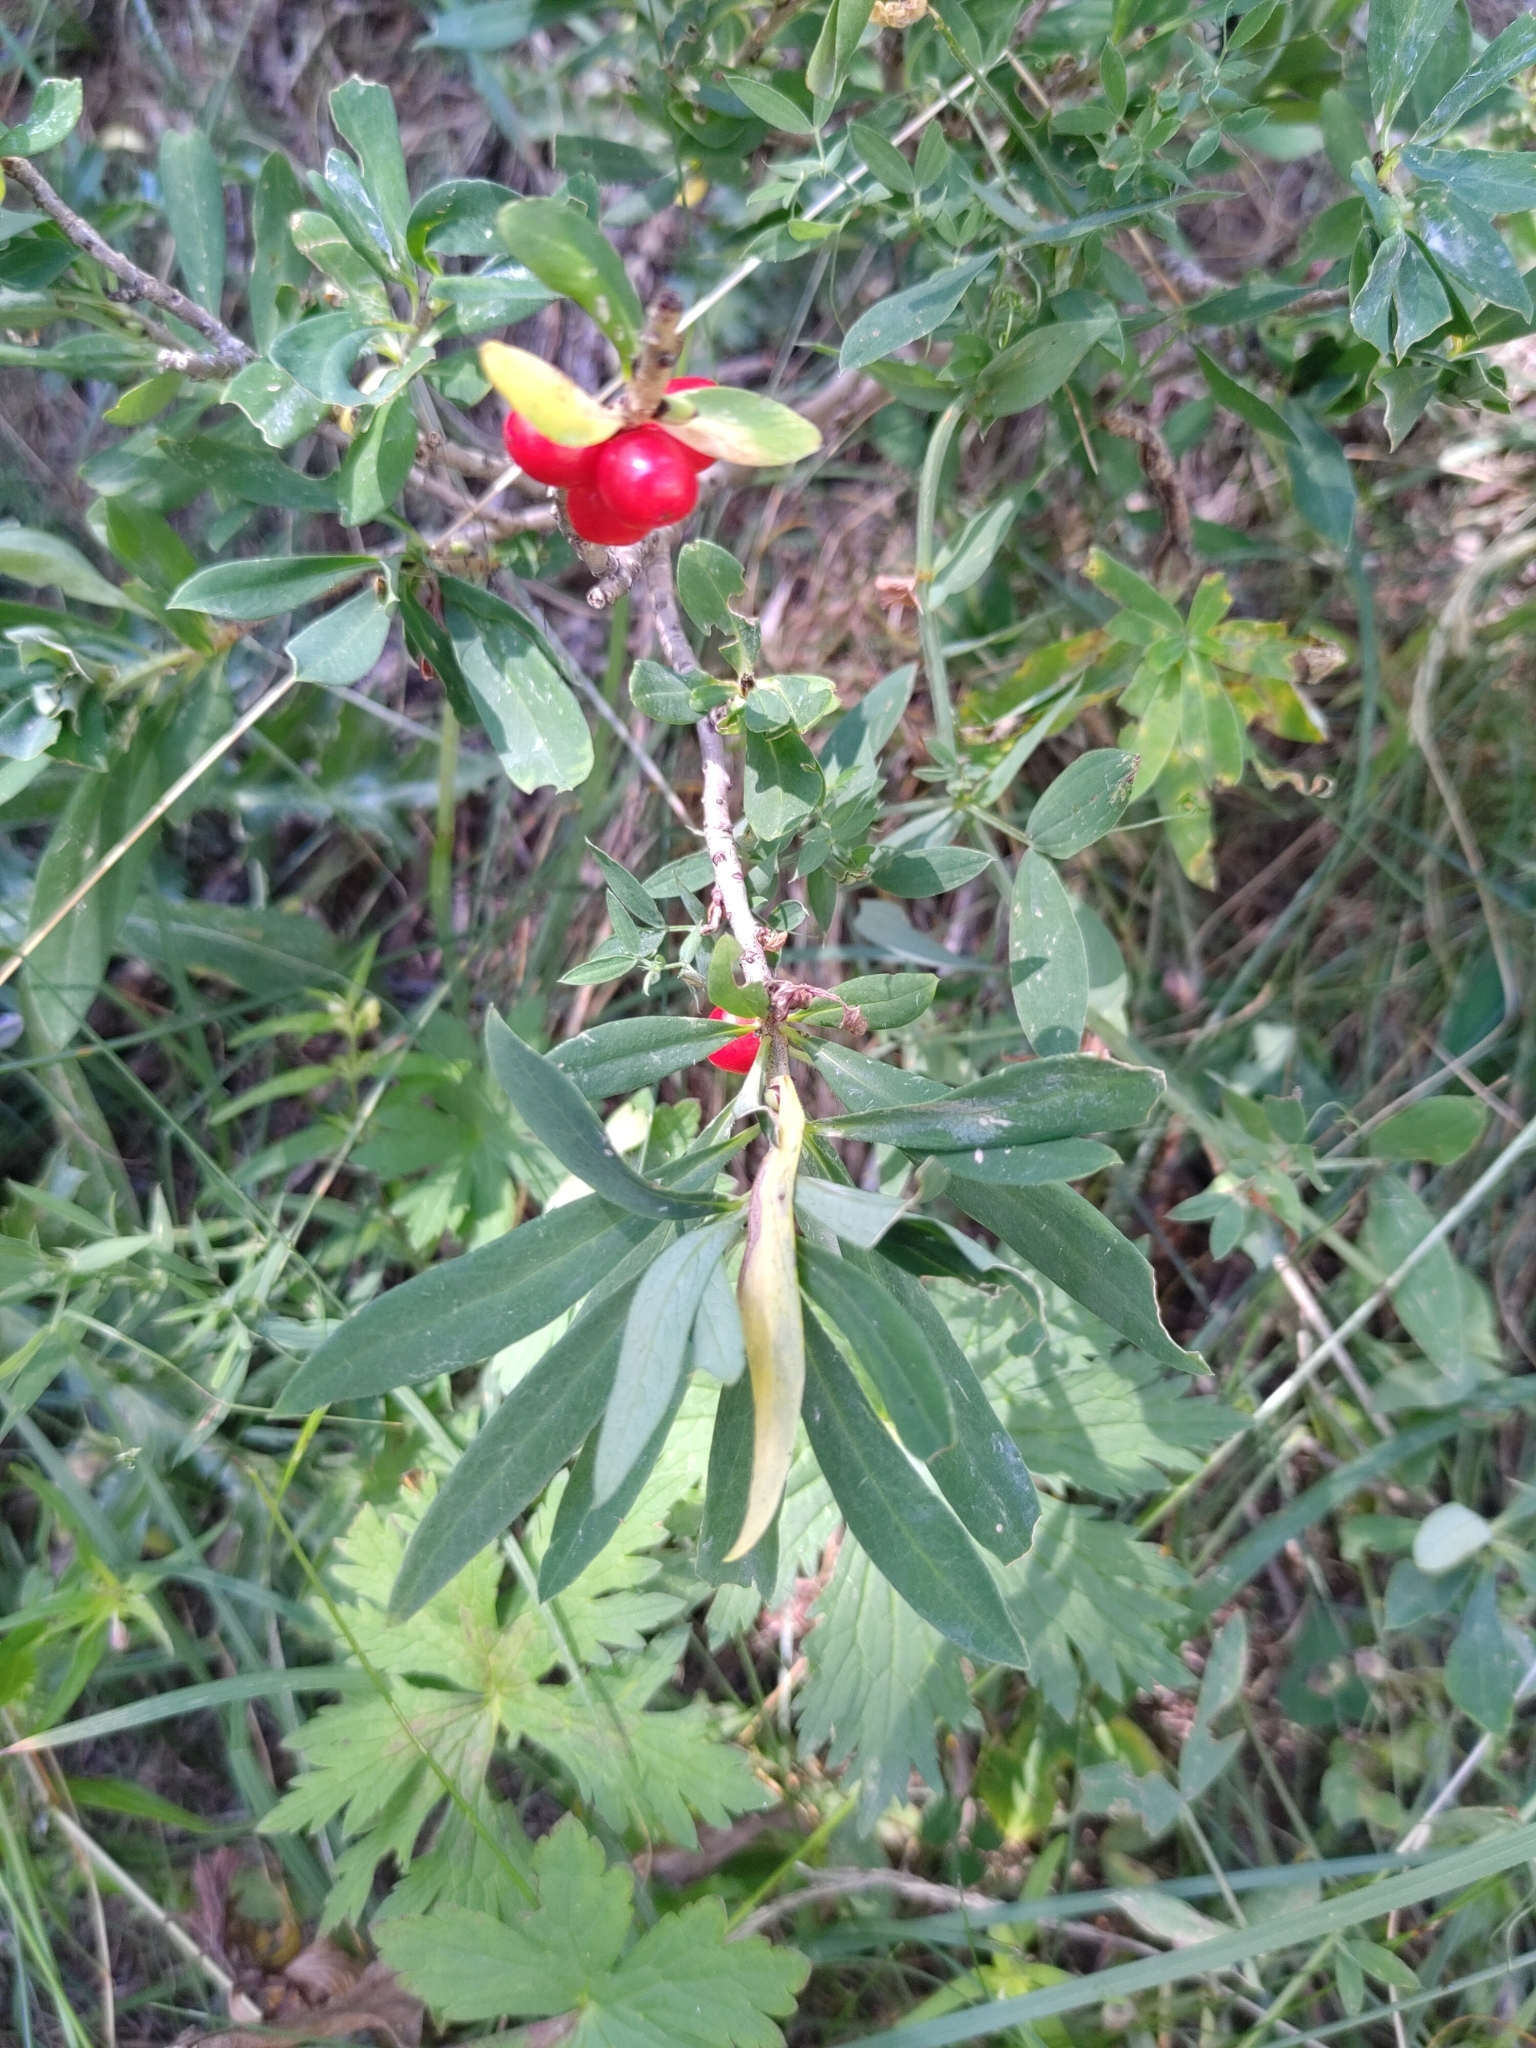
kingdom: Plantae
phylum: Tracheophyta
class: Magnoliopsida
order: Malvales
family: Thymelaeaceae
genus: Daphne
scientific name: Daphne mezereum
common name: Mezereon
